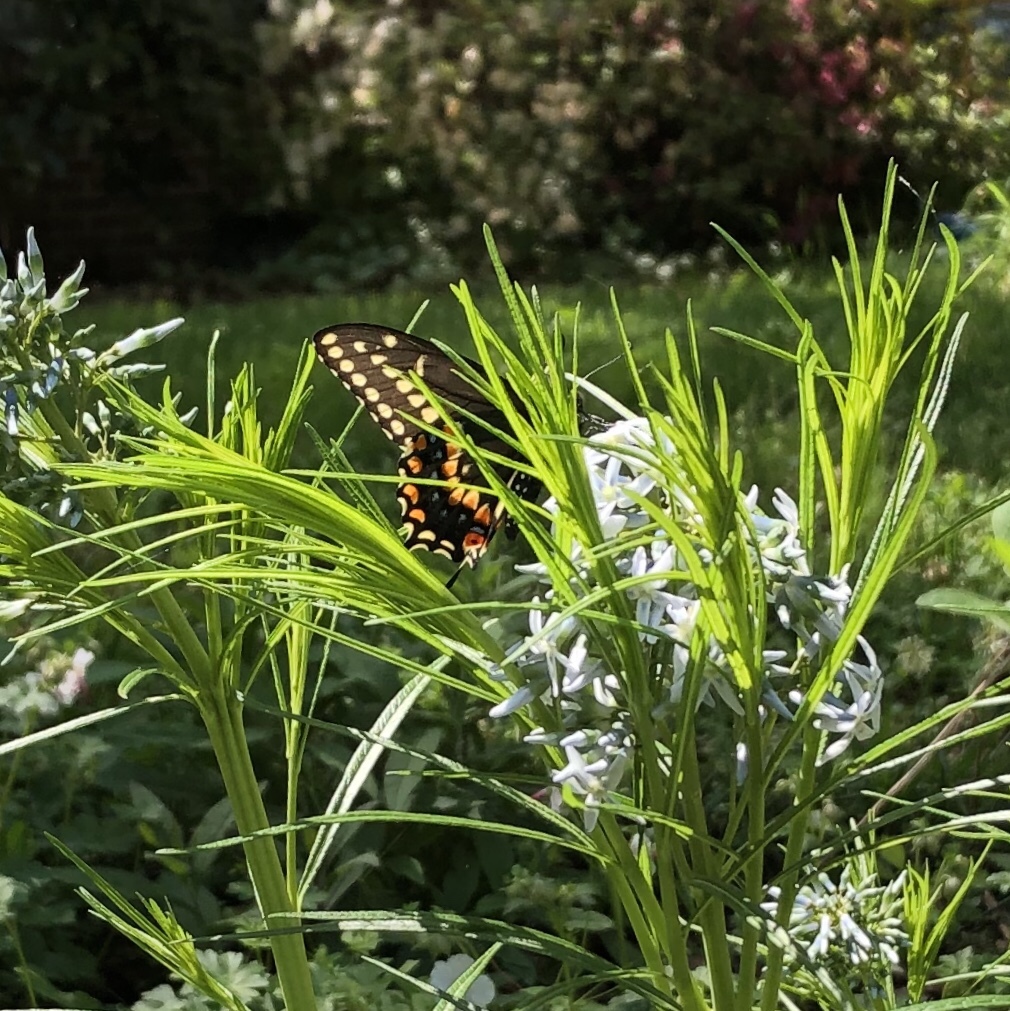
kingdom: Animalia
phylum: Arthropoda
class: Insecta
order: Lepidoptera
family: Papilionidae
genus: Papilio
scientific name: Papilio polyxenes
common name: Black swallowtail
